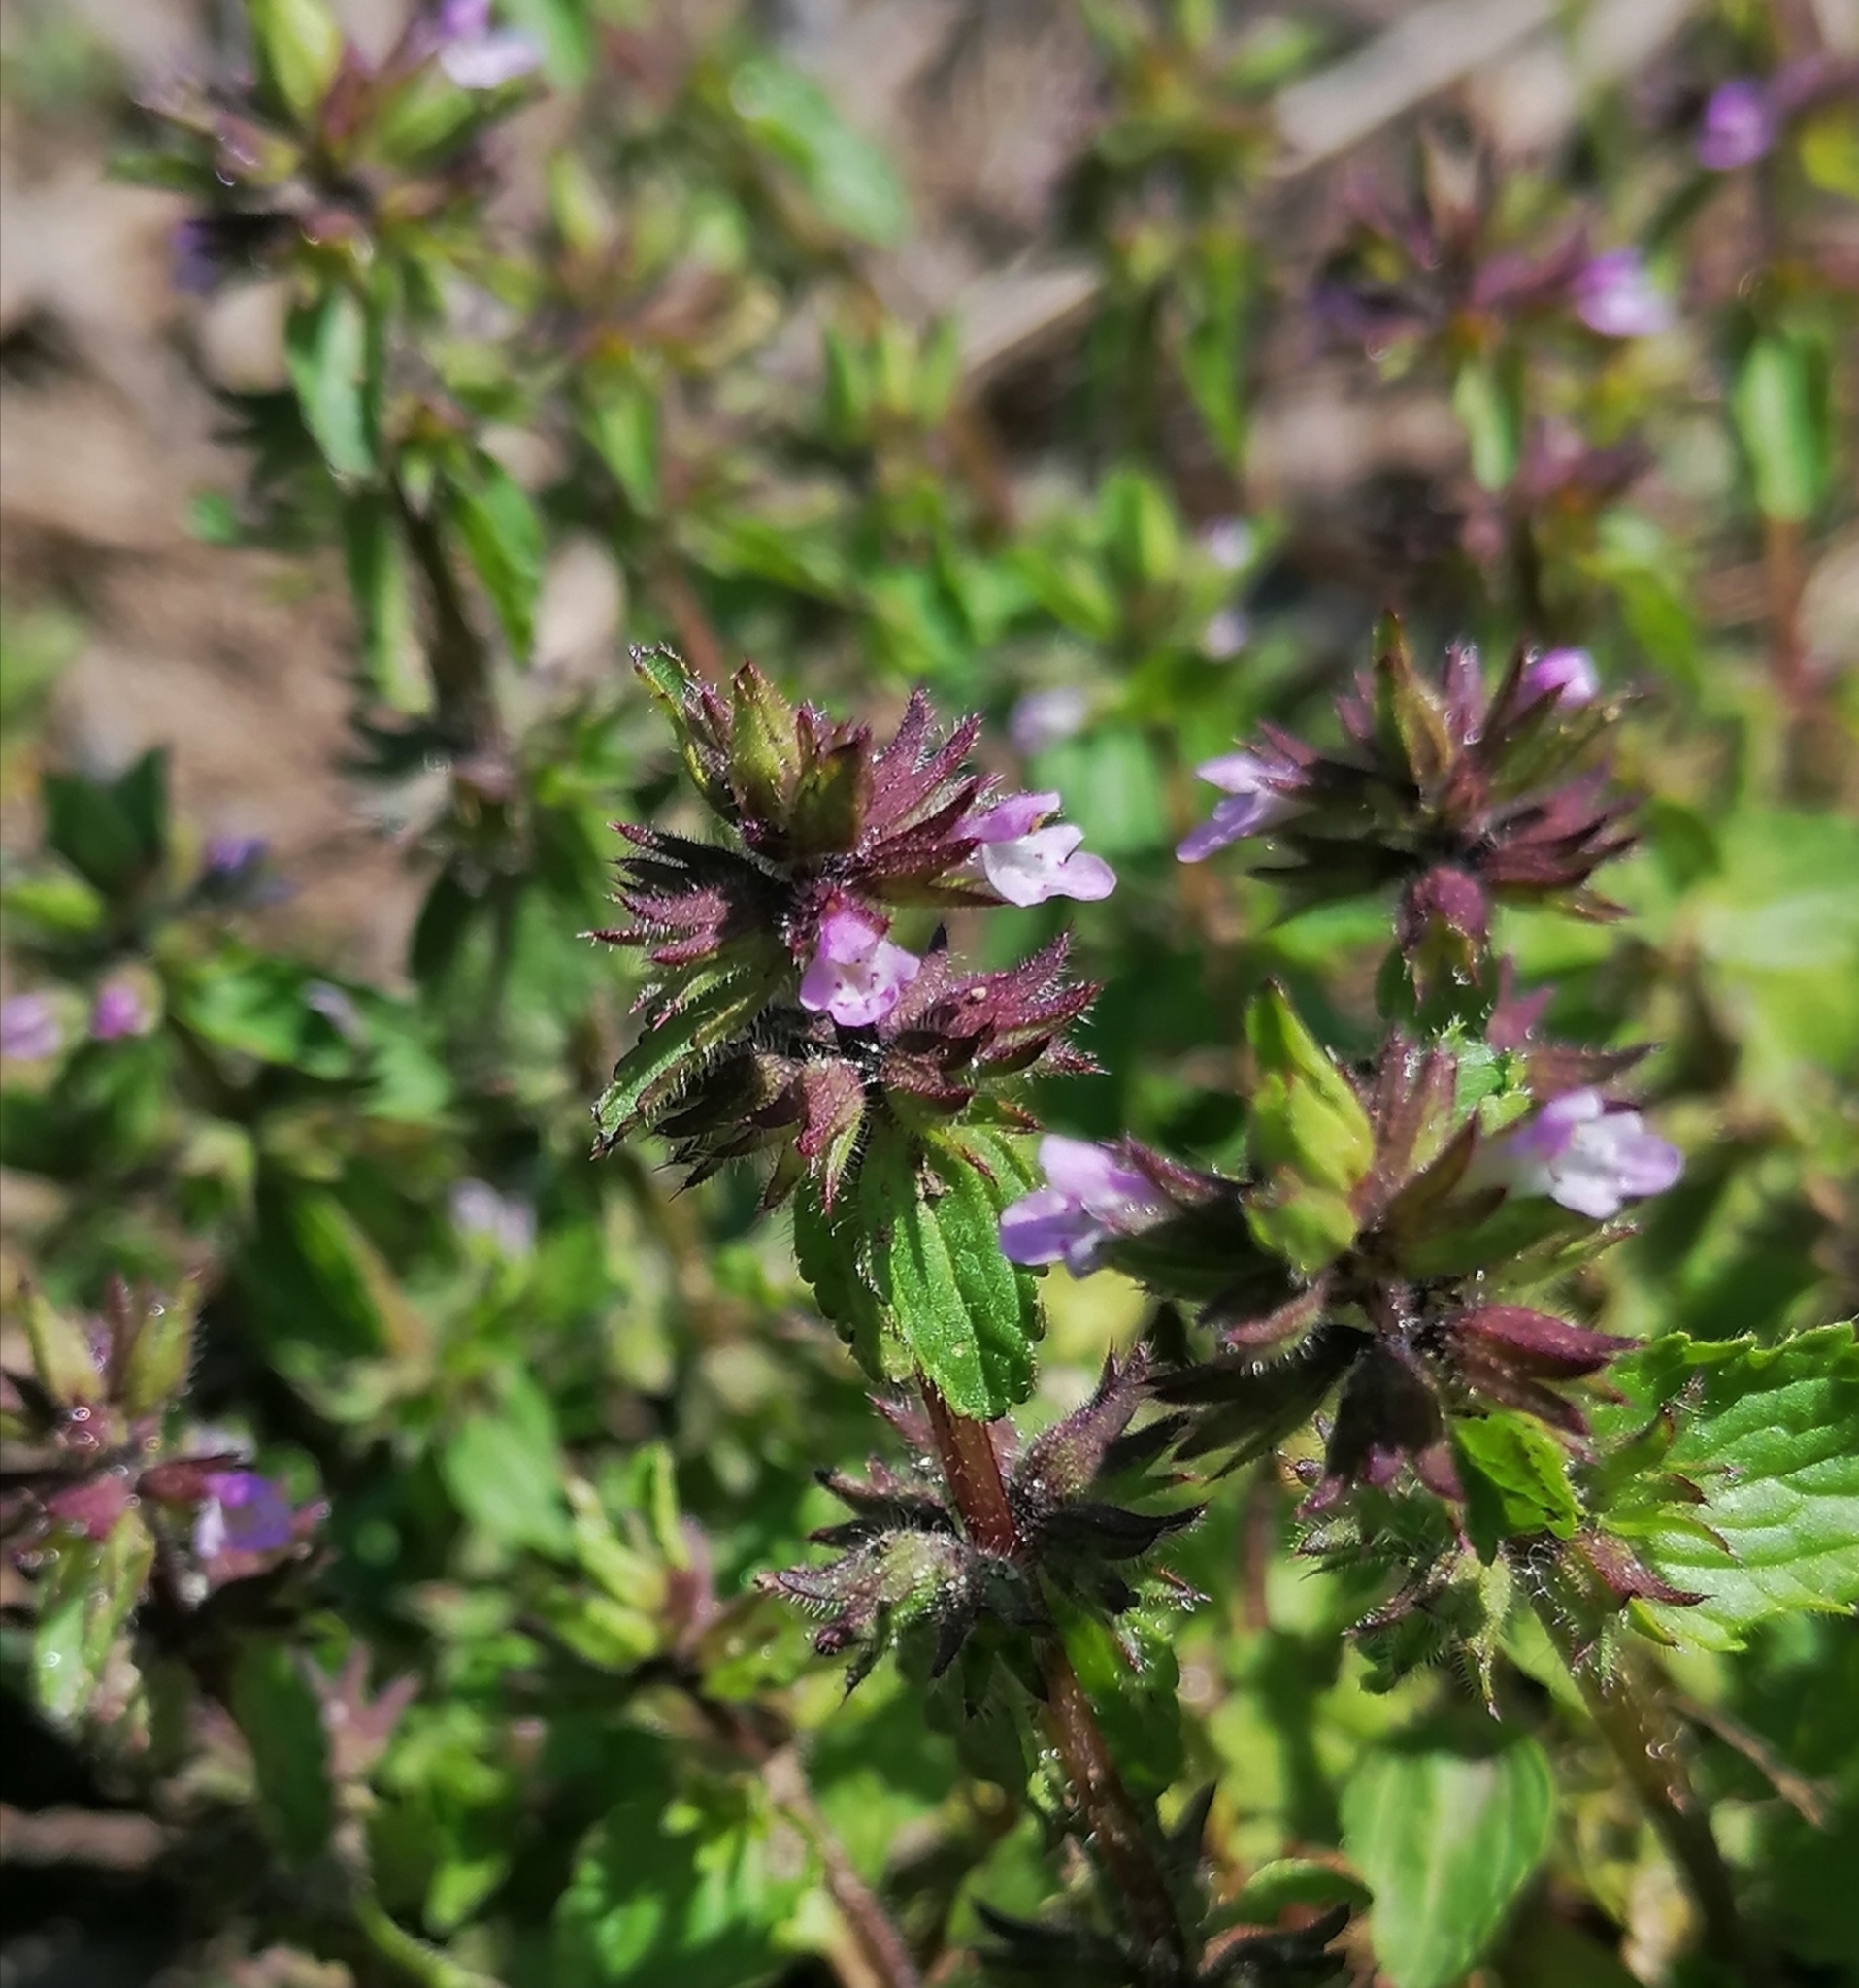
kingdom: Plantae
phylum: Tracheophyta
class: Magnoliopsida
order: Lamiales
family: Lamiaceae
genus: Stachys
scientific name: Stachys arvensis
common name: Field woundwort
